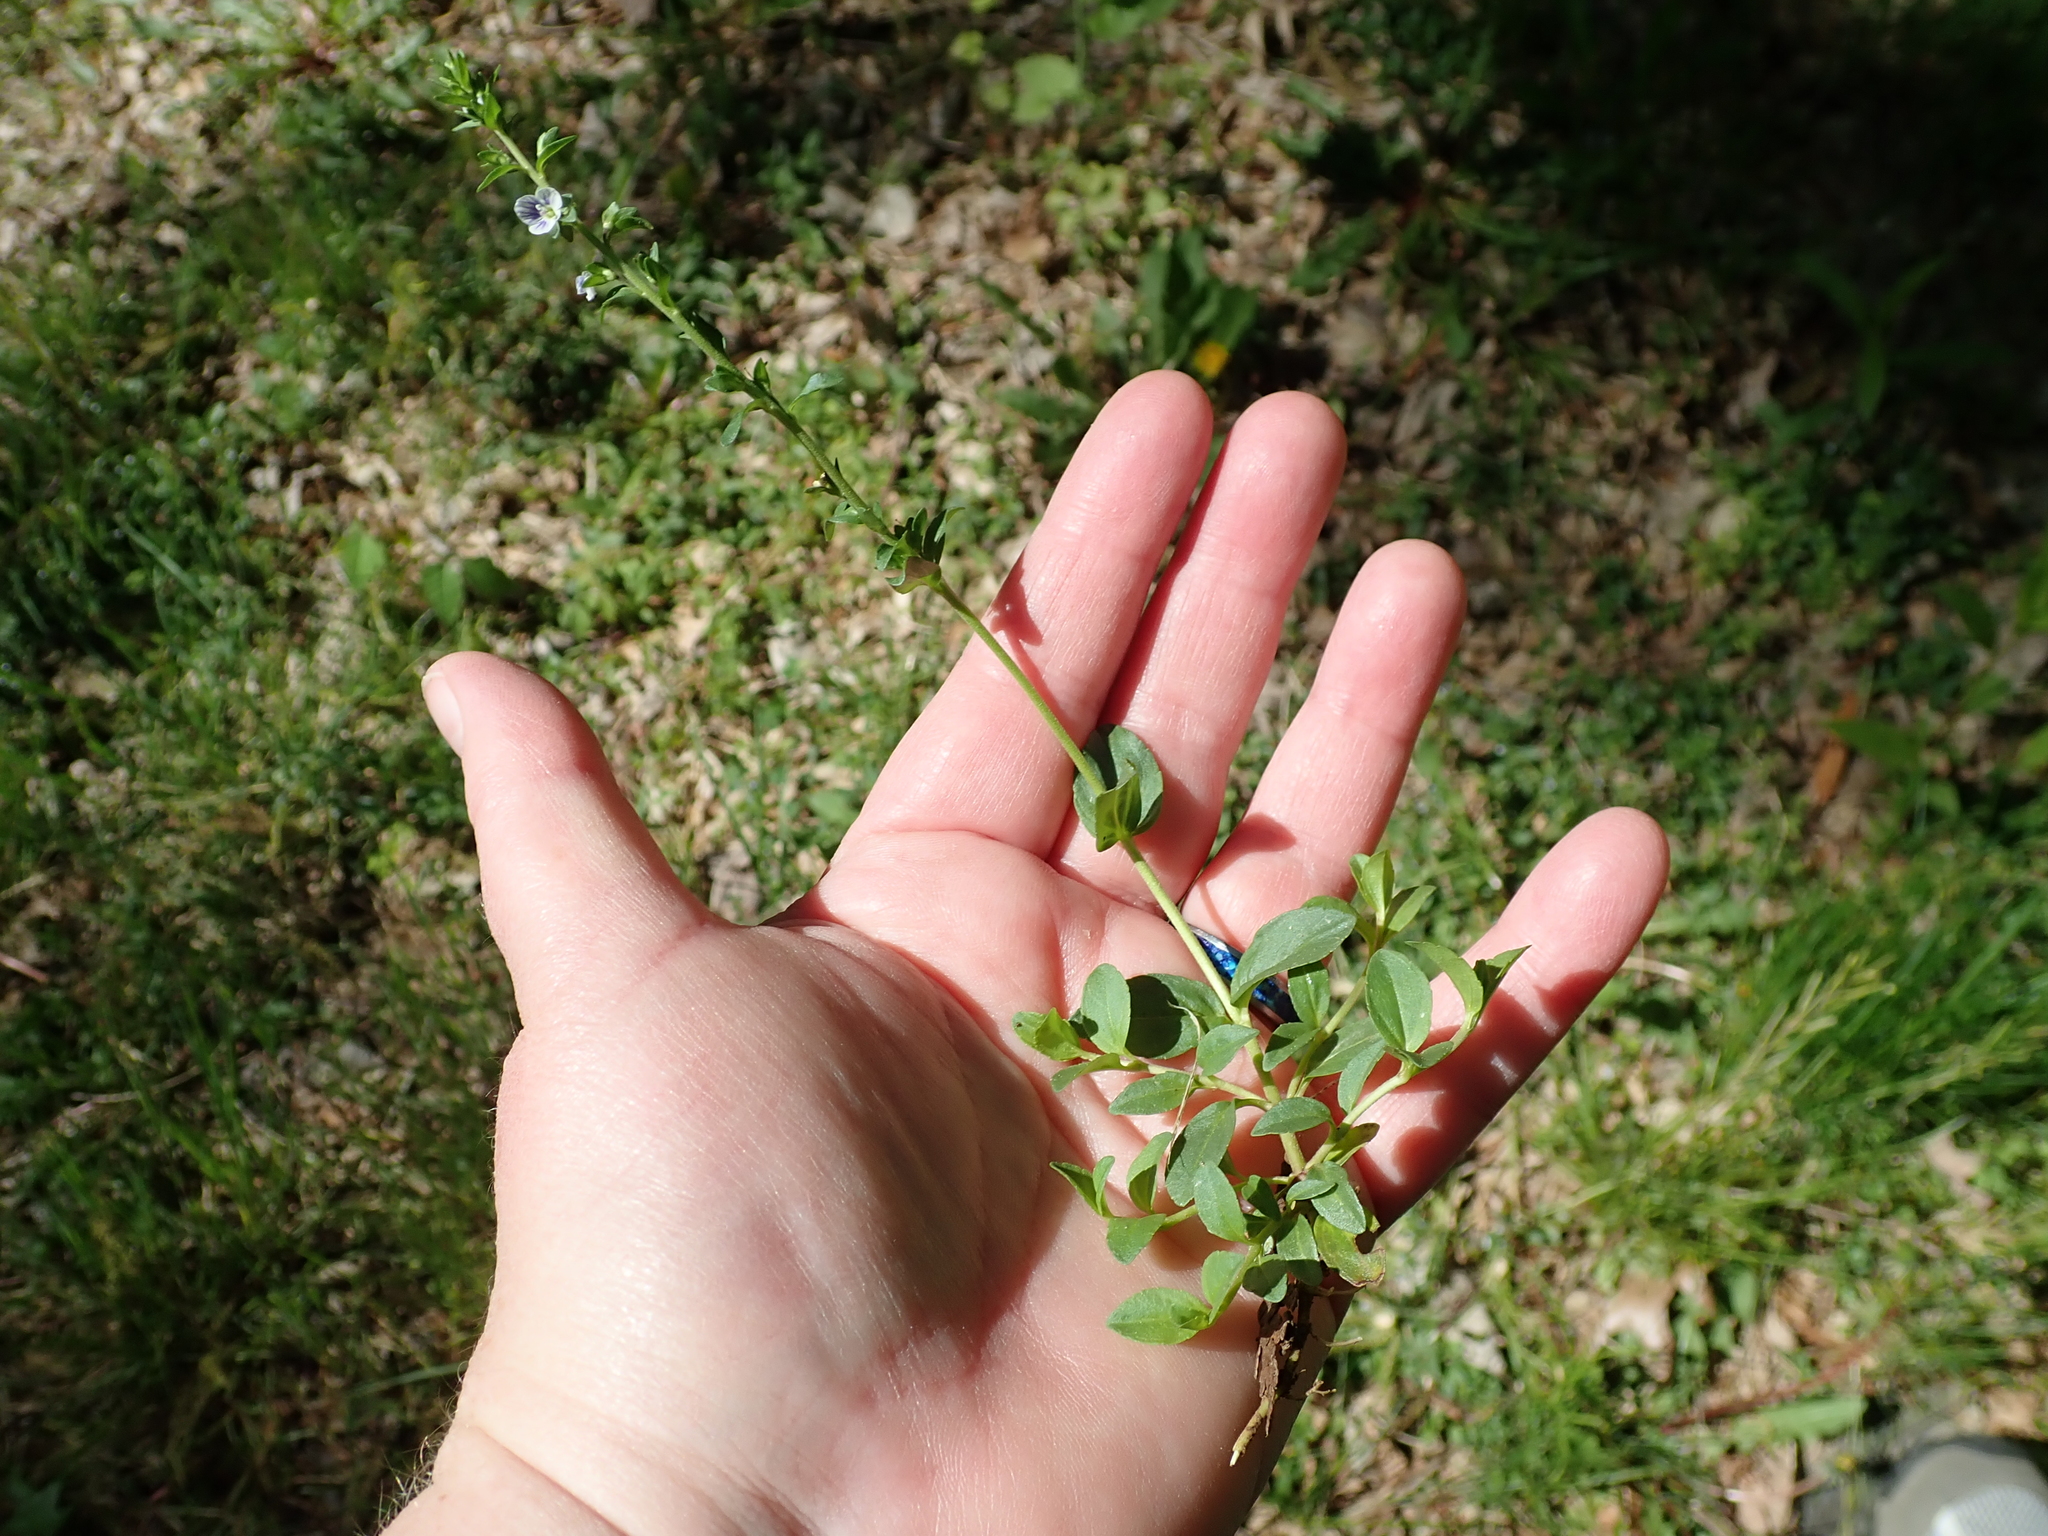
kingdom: Plantae
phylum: Tracheophyta
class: Magnoliopsida
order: Lamiales
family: Plantaginaceae
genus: Veronica
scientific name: Veronica serpyllifolia
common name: Thyme-leaved speedwell
